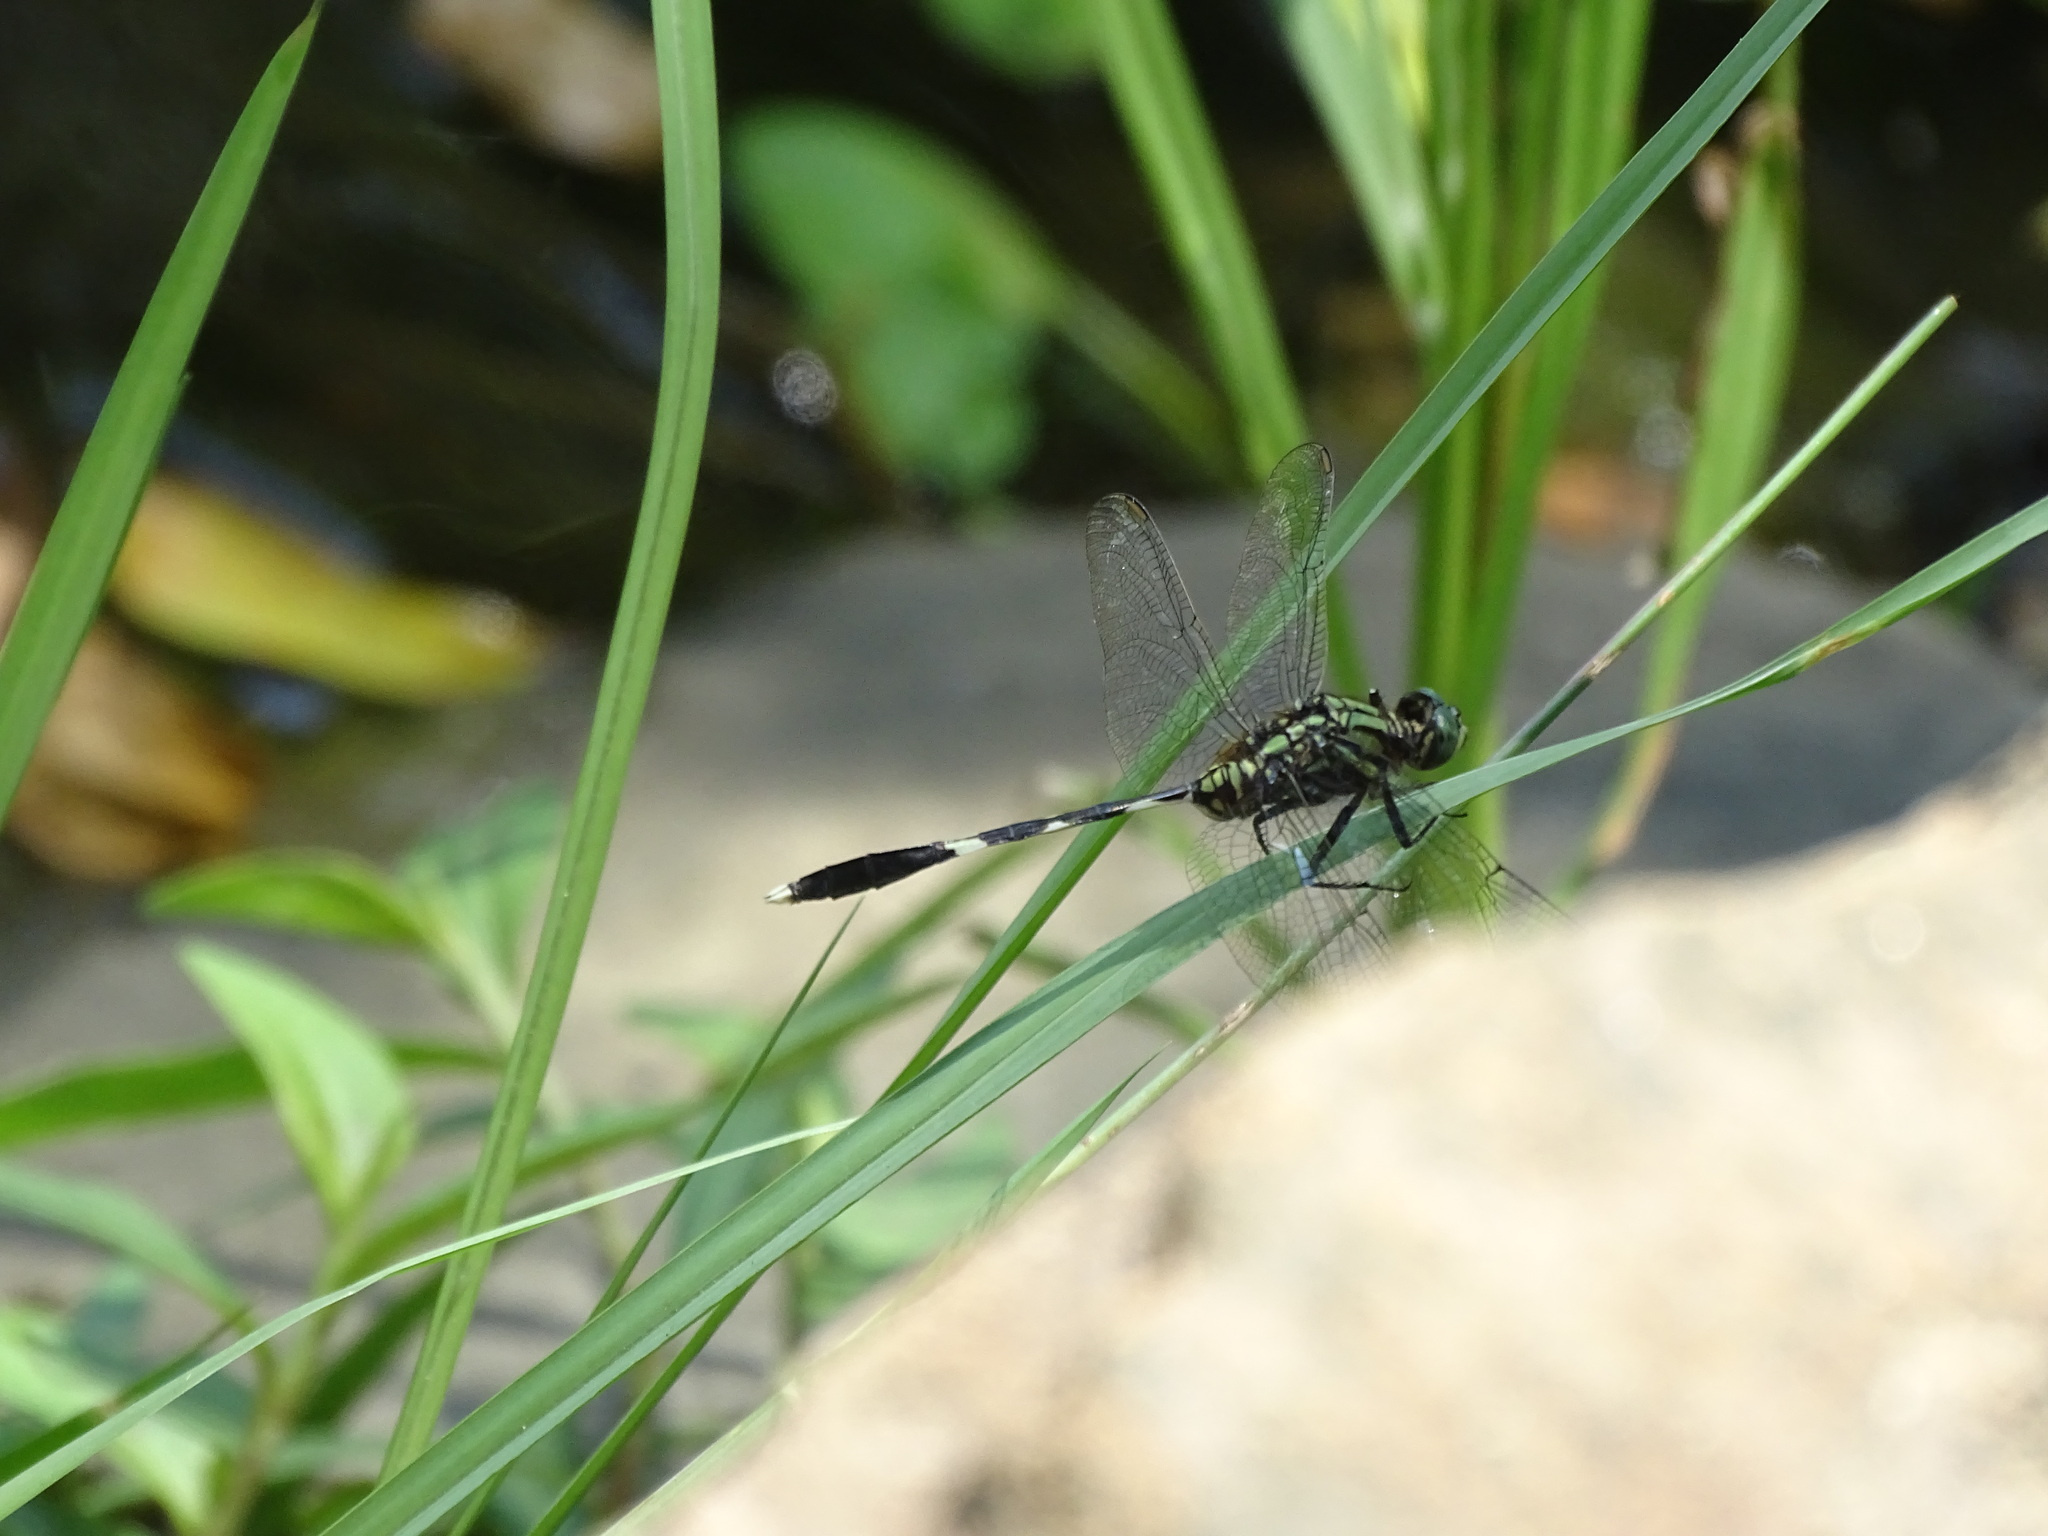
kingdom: Animalia
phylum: Arthropoda
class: Insecta
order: Odonata
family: Libellulidae
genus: Orthetrum
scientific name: Orthetrum sabina
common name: Slender skimmer
